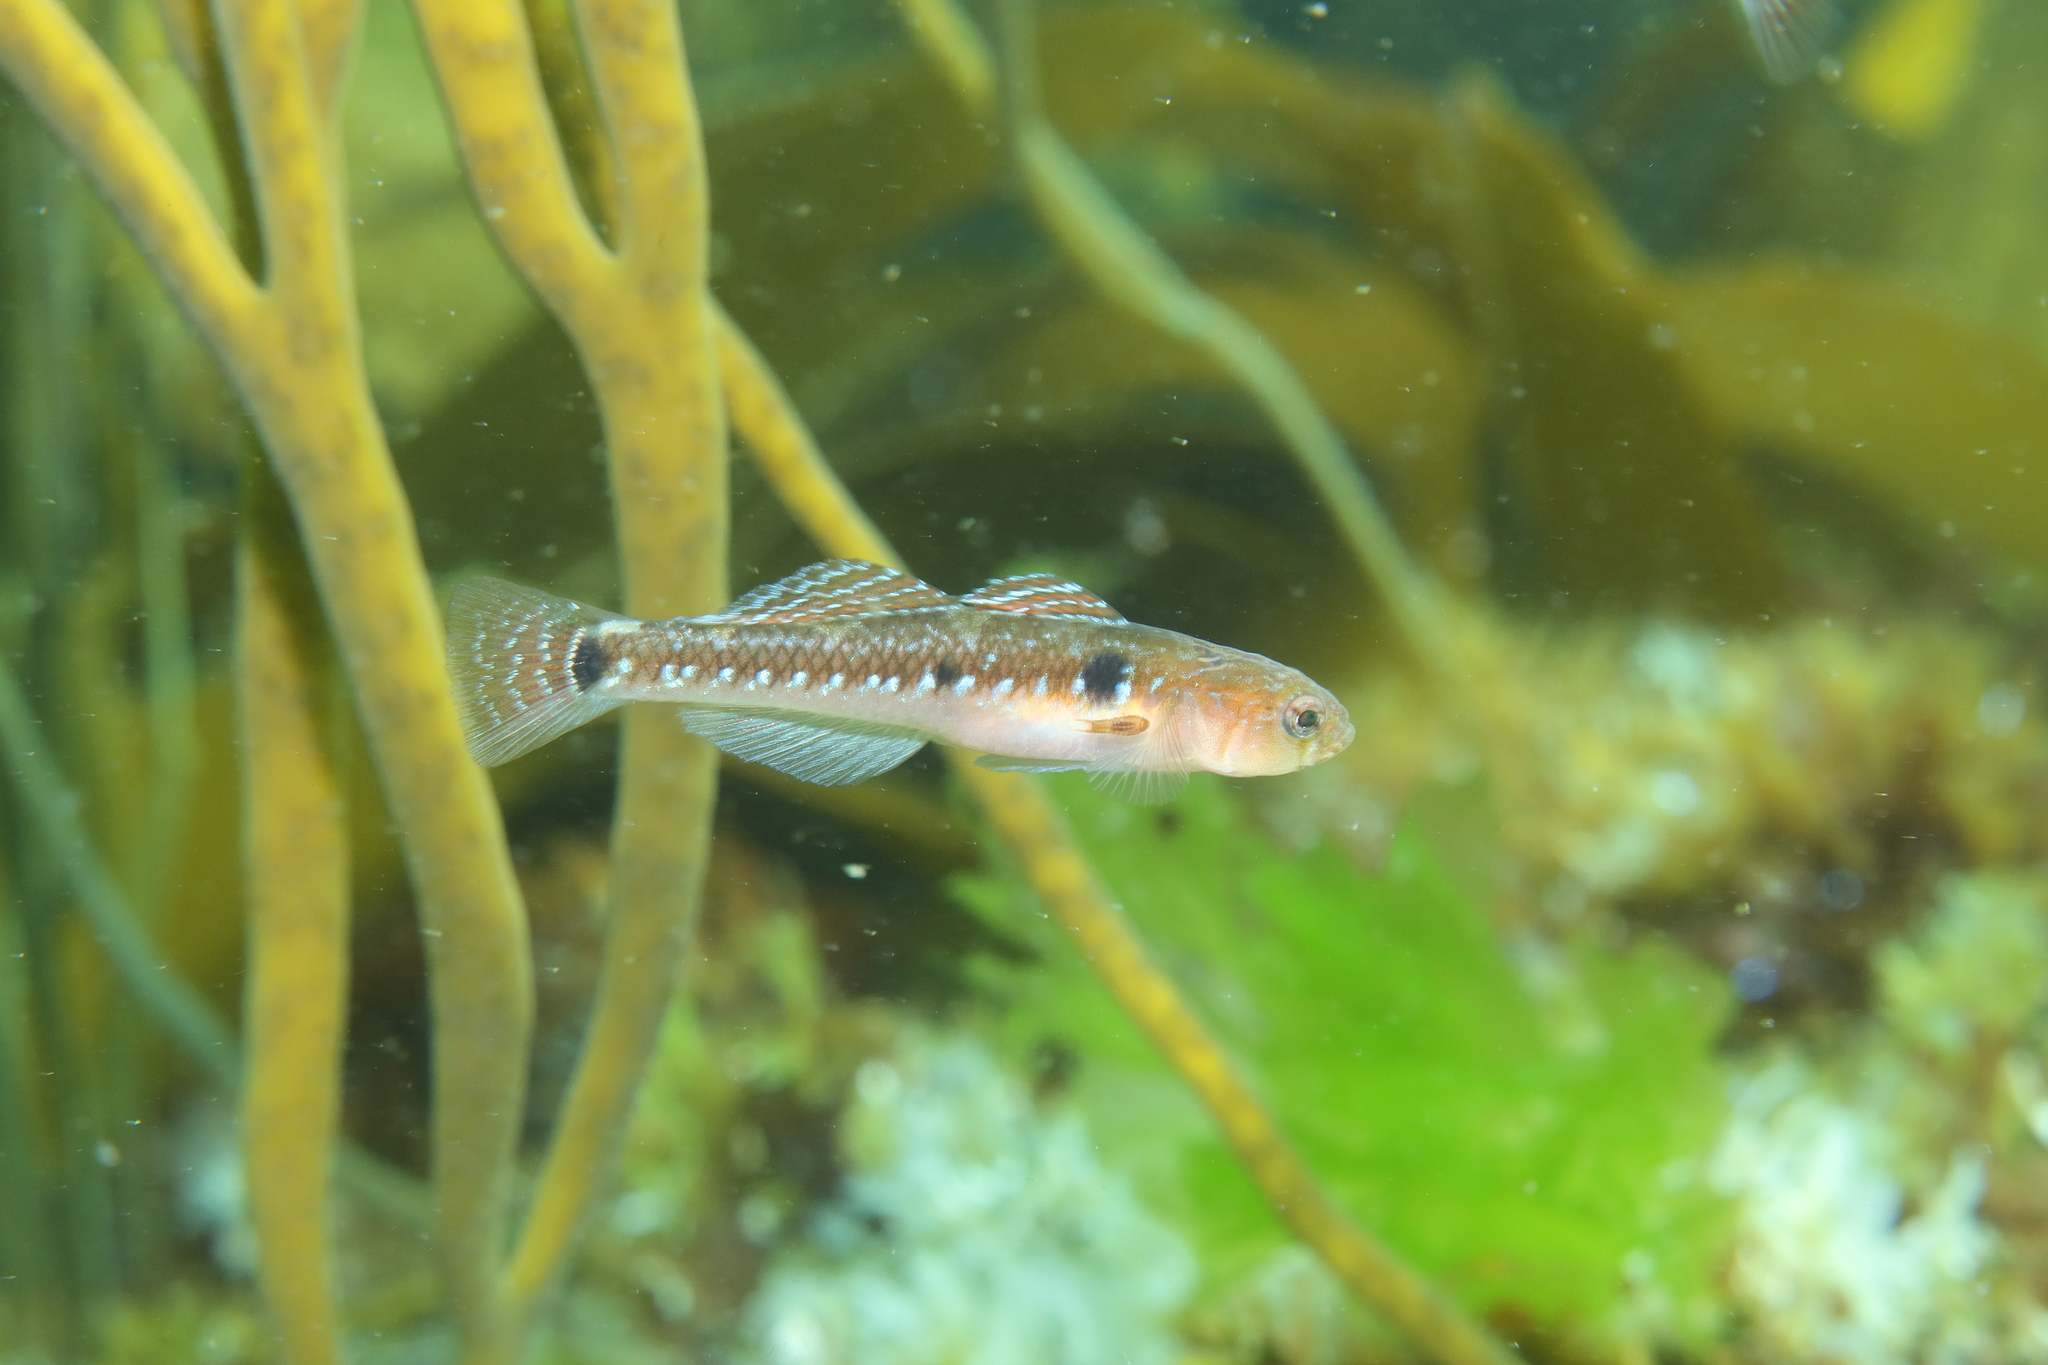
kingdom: Animalia
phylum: Chordata
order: Perciformes
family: Gobiidae
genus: Gobiusculus
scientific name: Gobiusculus flavescens
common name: Two-spotted goby
